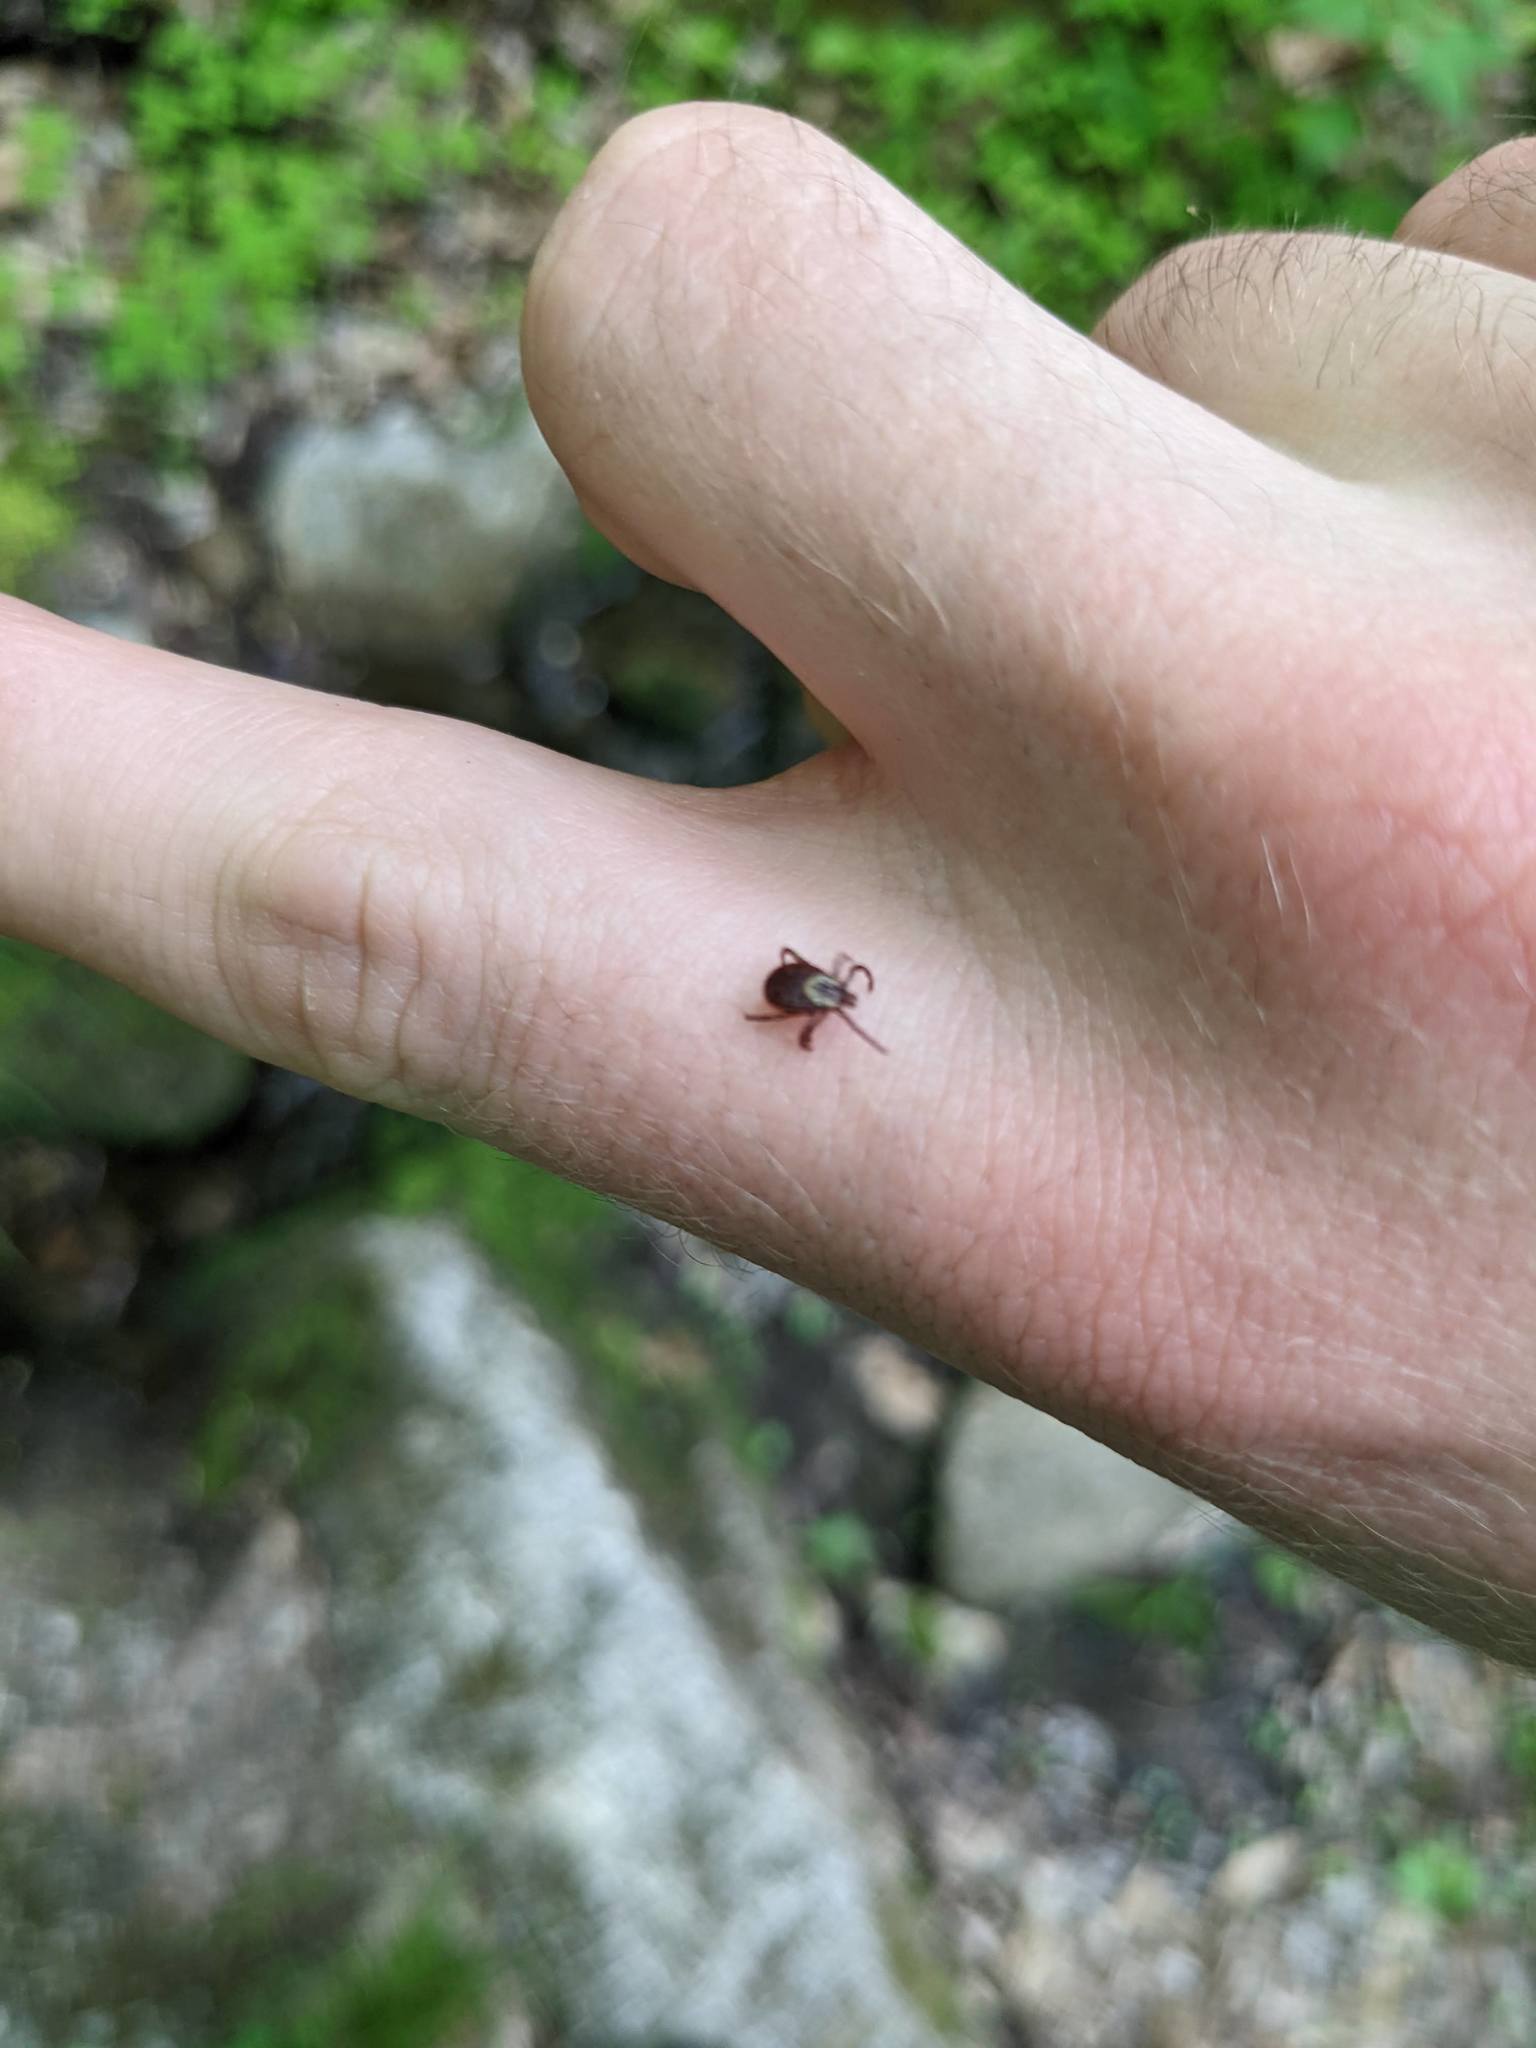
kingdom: Animalia
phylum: Arthropoda
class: Arachnida
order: Ixodida
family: Ixodidae
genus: Dermacentor
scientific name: Dermacentor variabilis
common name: American dog tick
